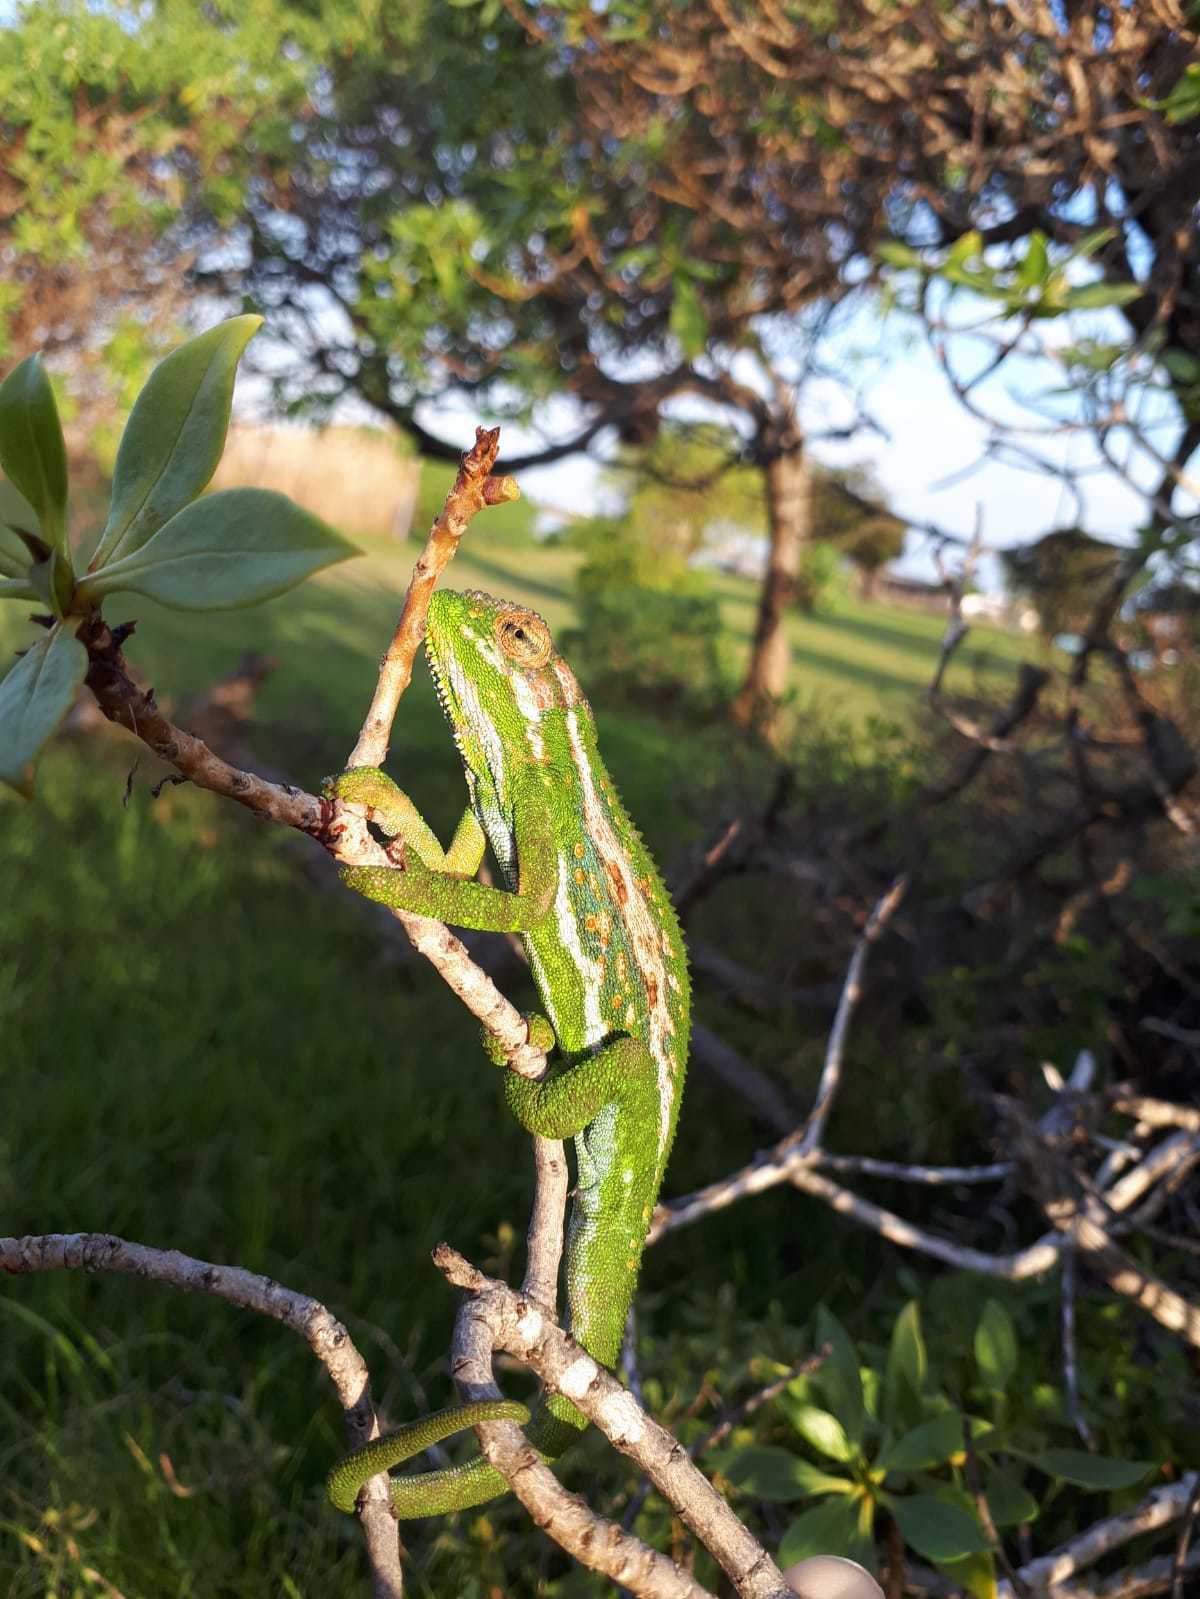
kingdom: Animalia
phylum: Chordata
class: Squamata
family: Chamaeleonidae
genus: Bradypodion
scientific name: Bradypodion pumilum
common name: Cape dwarf chameleon
